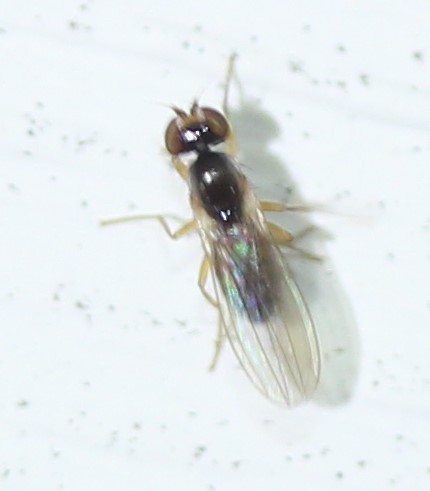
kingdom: Animalia
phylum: Arthropoda
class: Insecta
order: Diptera
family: Anthomyzidae
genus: Mumetopia
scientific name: Mumetopia occipitalis
